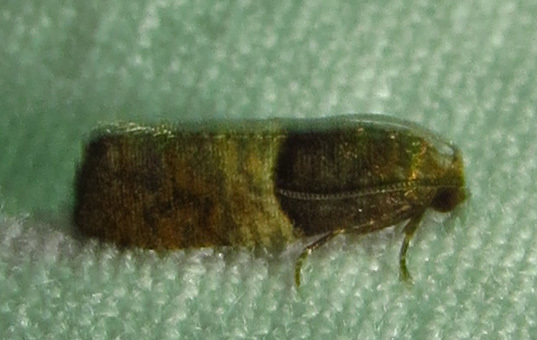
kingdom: Animalia
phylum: Arthropoda
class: Insecta
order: Lepidoptera
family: Tortricidae
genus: Larisa
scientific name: Larisa subsolana
